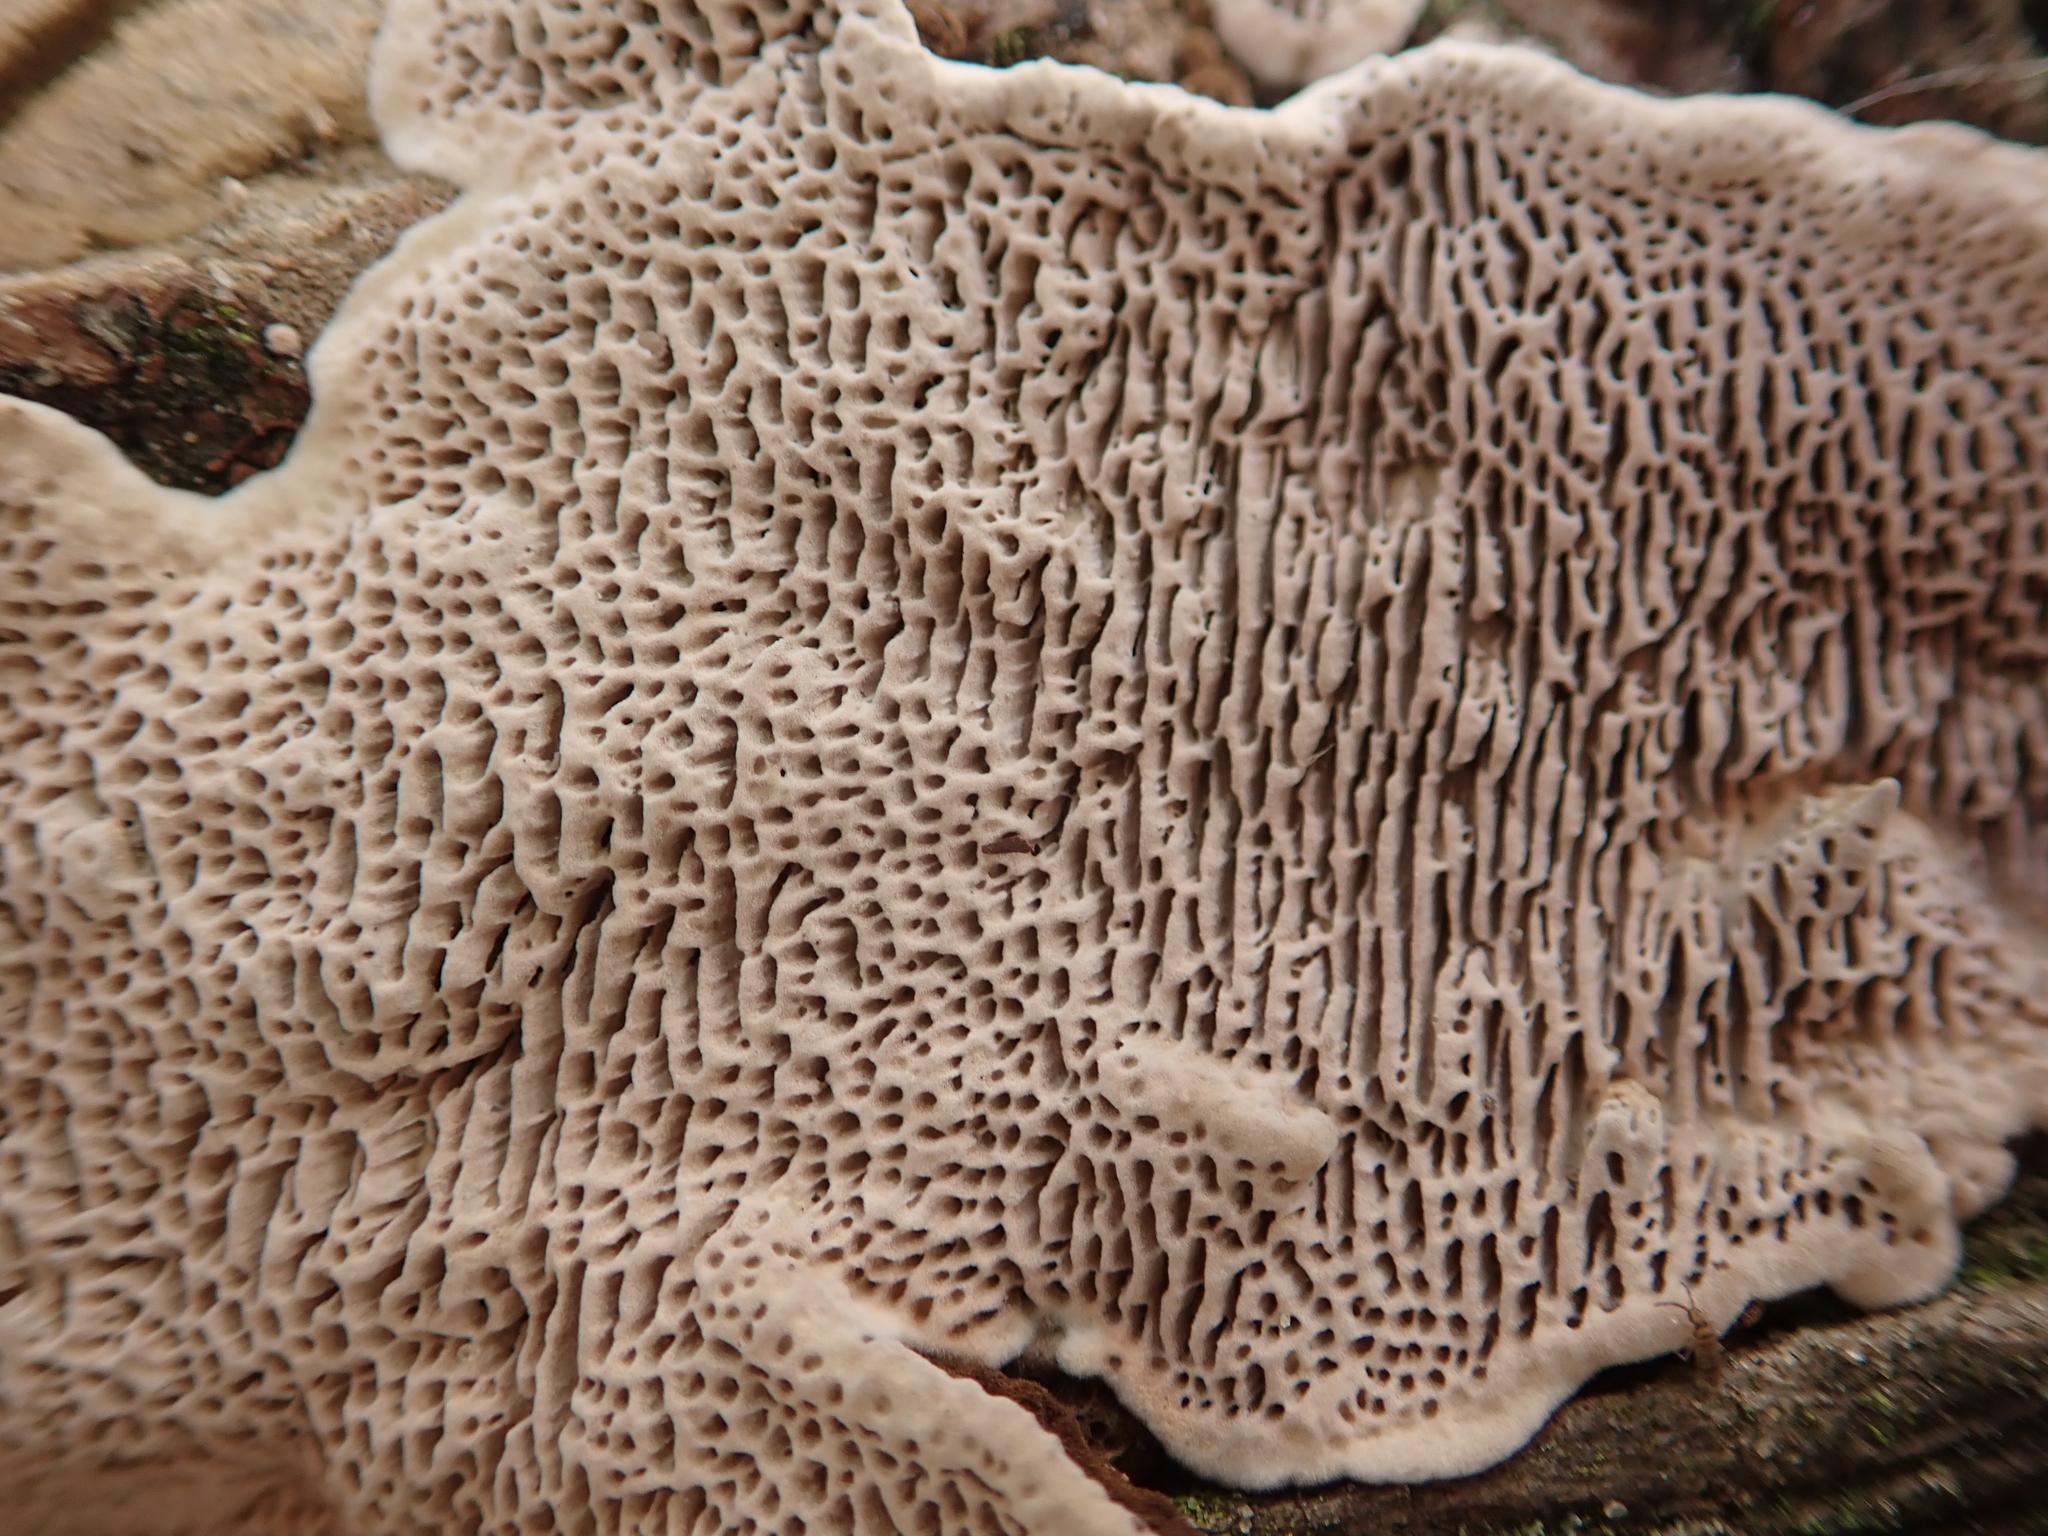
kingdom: Fungi
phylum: Basidiomycota
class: Agaricomycetes
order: Polyporales
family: Polyporaceae
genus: Podofomes
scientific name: Podofomes mollis
